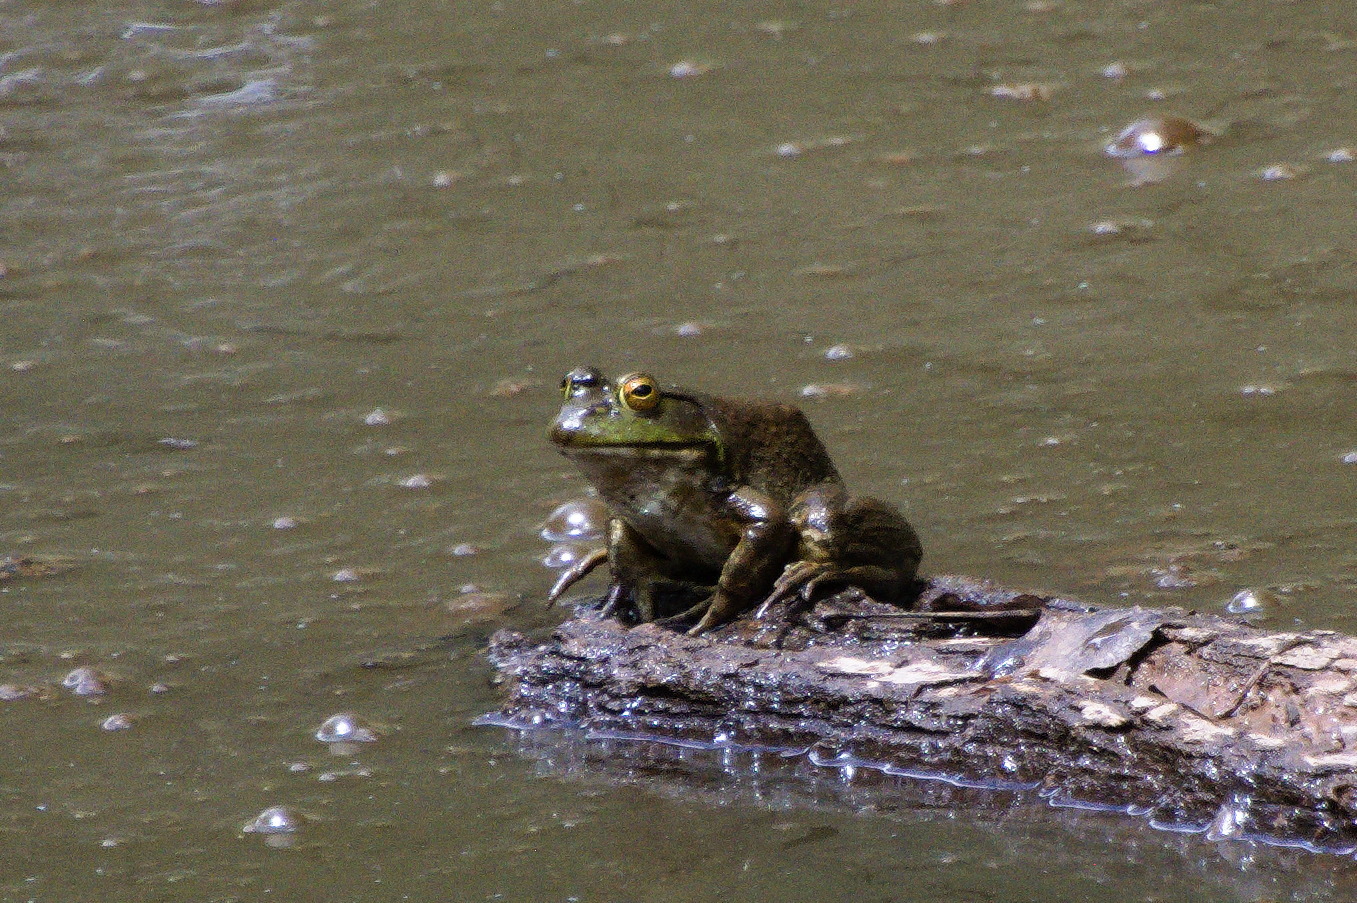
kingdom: Animalia
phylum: Chordata
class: Amphibia
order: Anura
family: Ranidae
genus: Lithobates
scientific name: Lithobates catesbeianus
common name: American bullfrog
